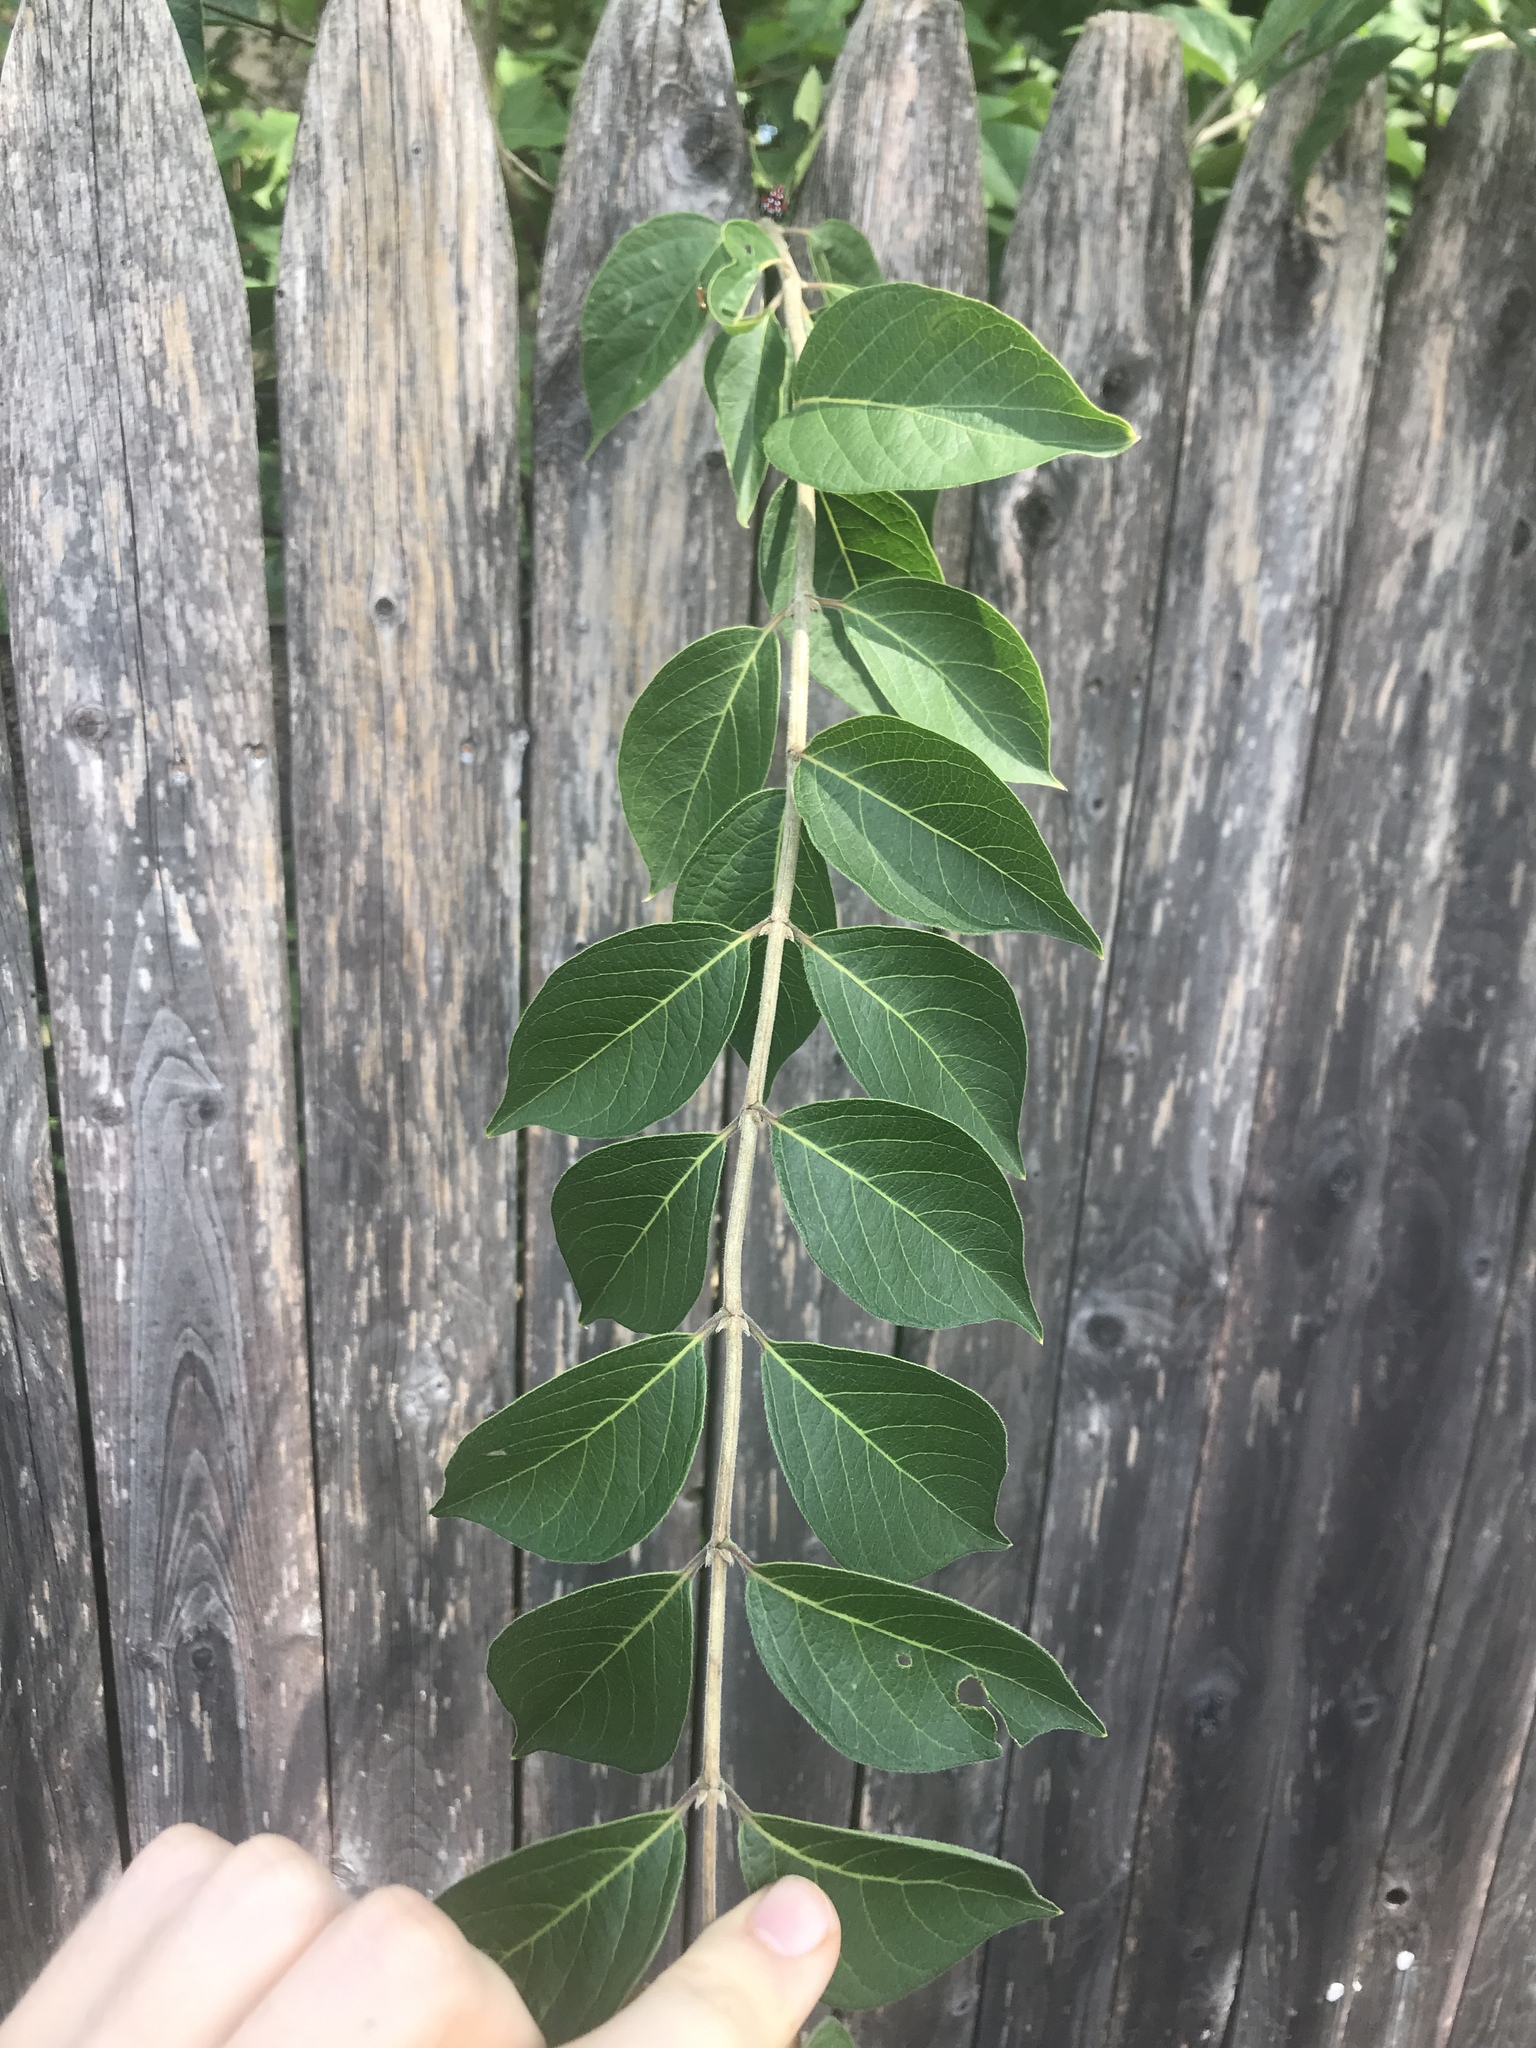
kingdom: Plantae
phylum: Tracheophyta
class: Magnoliopsida
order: Dipsacales
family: Caprifoliaceae
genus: Lonicera
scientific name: Lonicera maackii
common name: Amur honeysuckle
